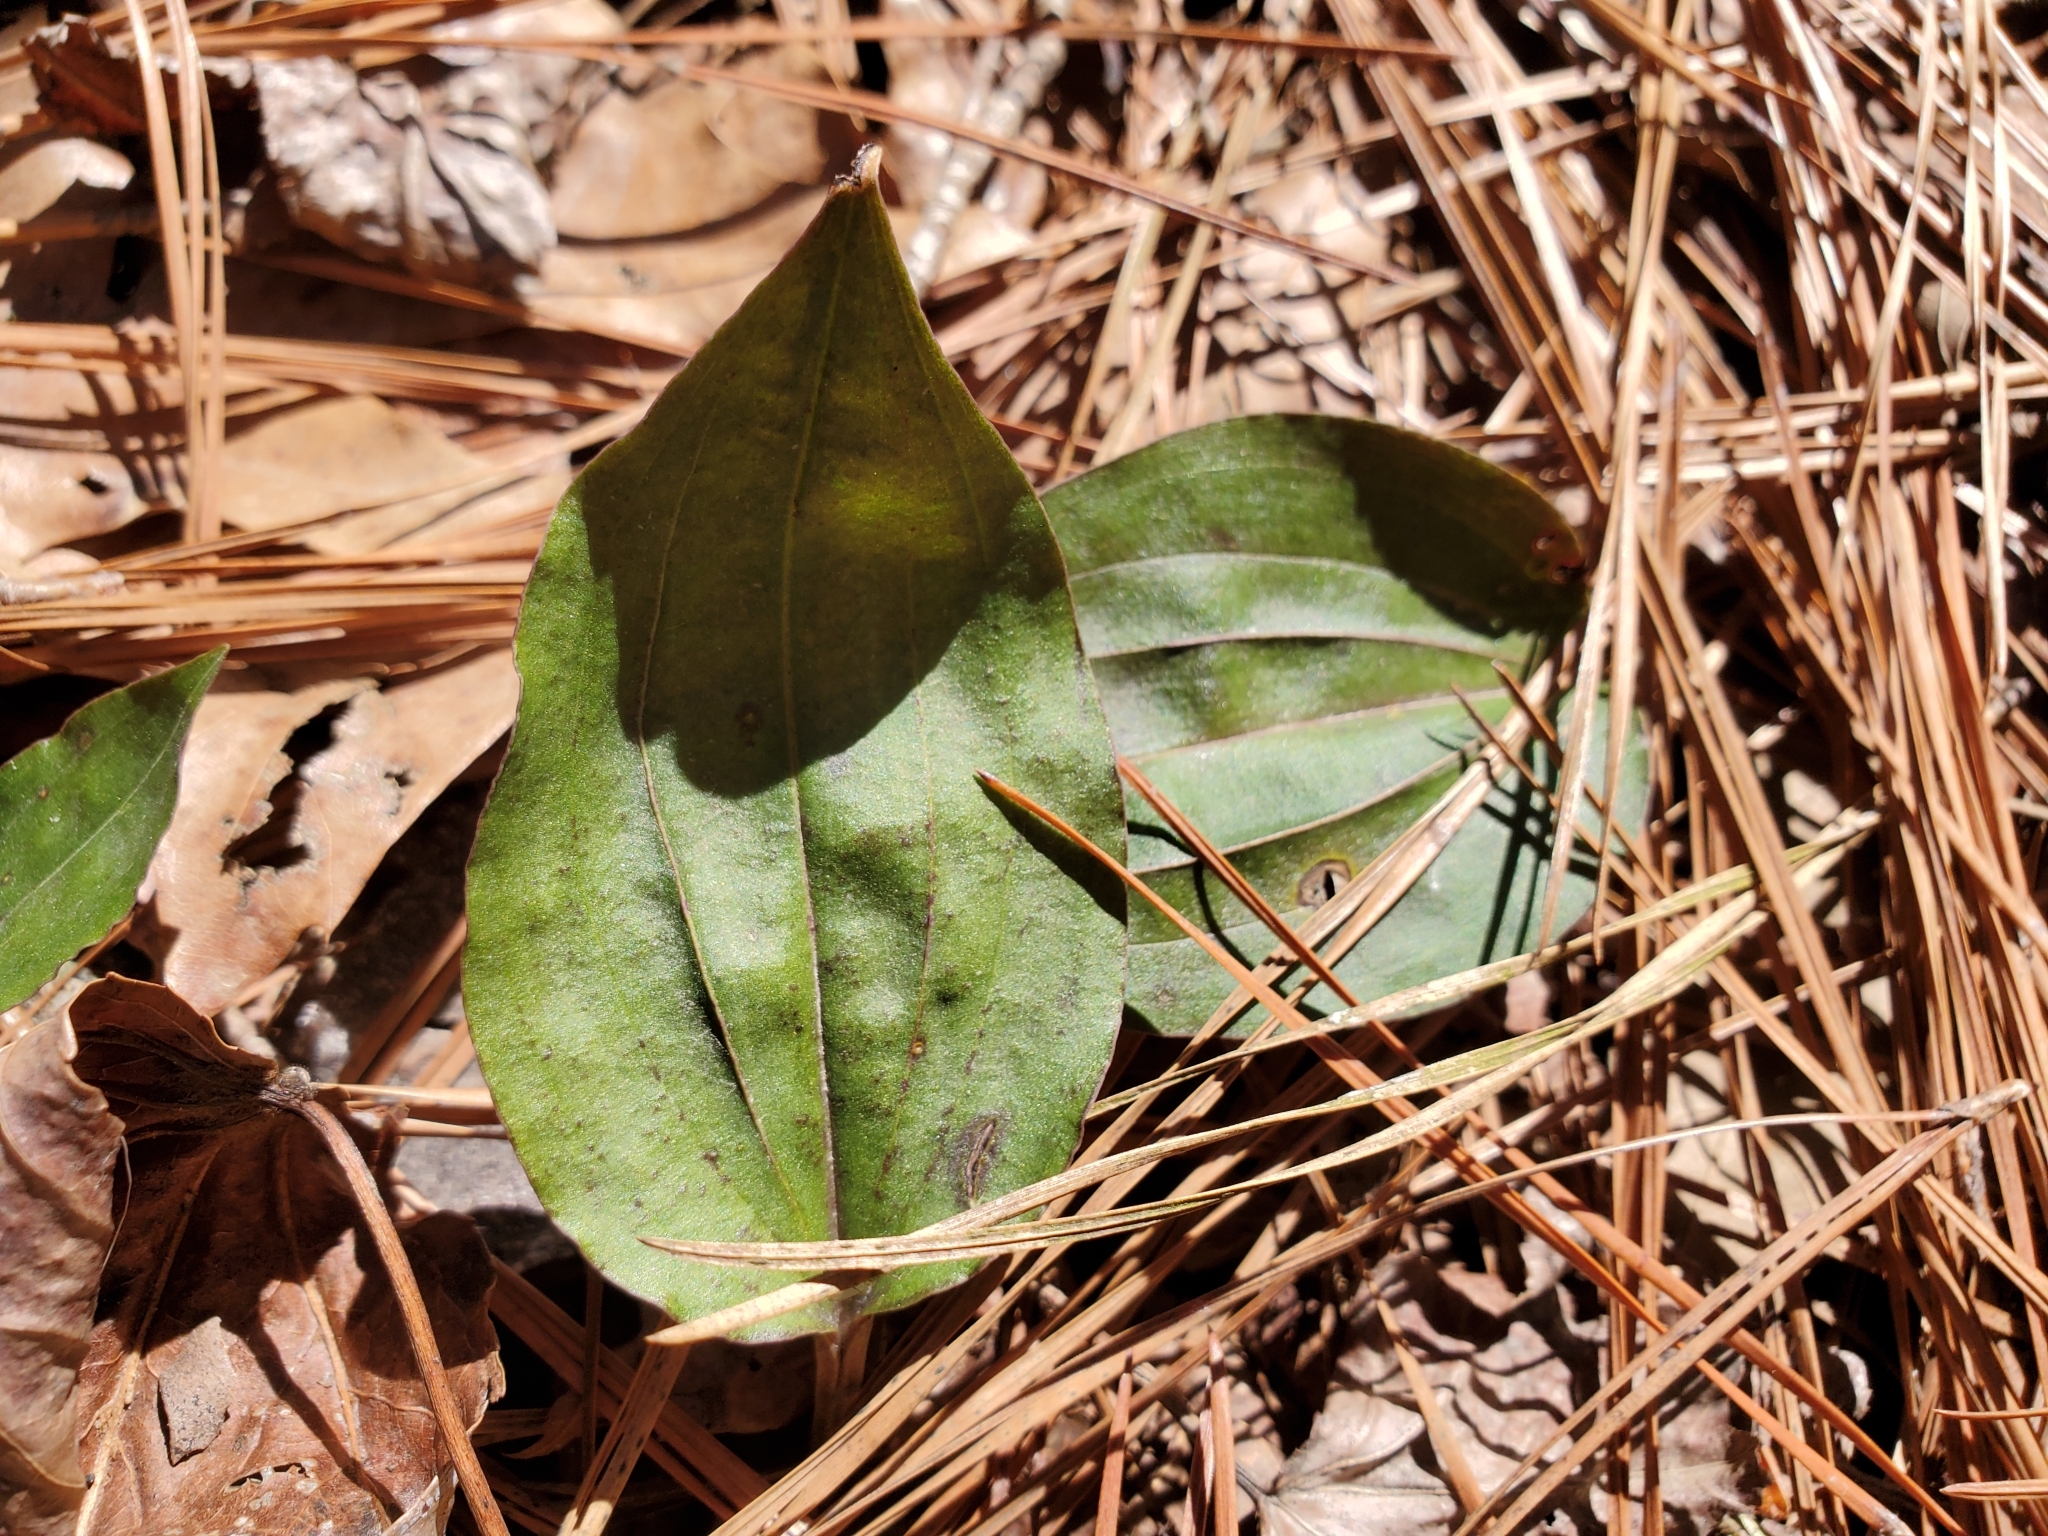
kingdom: Plantae
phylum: Tracheophyta
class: Liliopsida
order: Asparagales
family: Orchidaceae
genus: Tipularia
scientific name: Tipularia discolor
